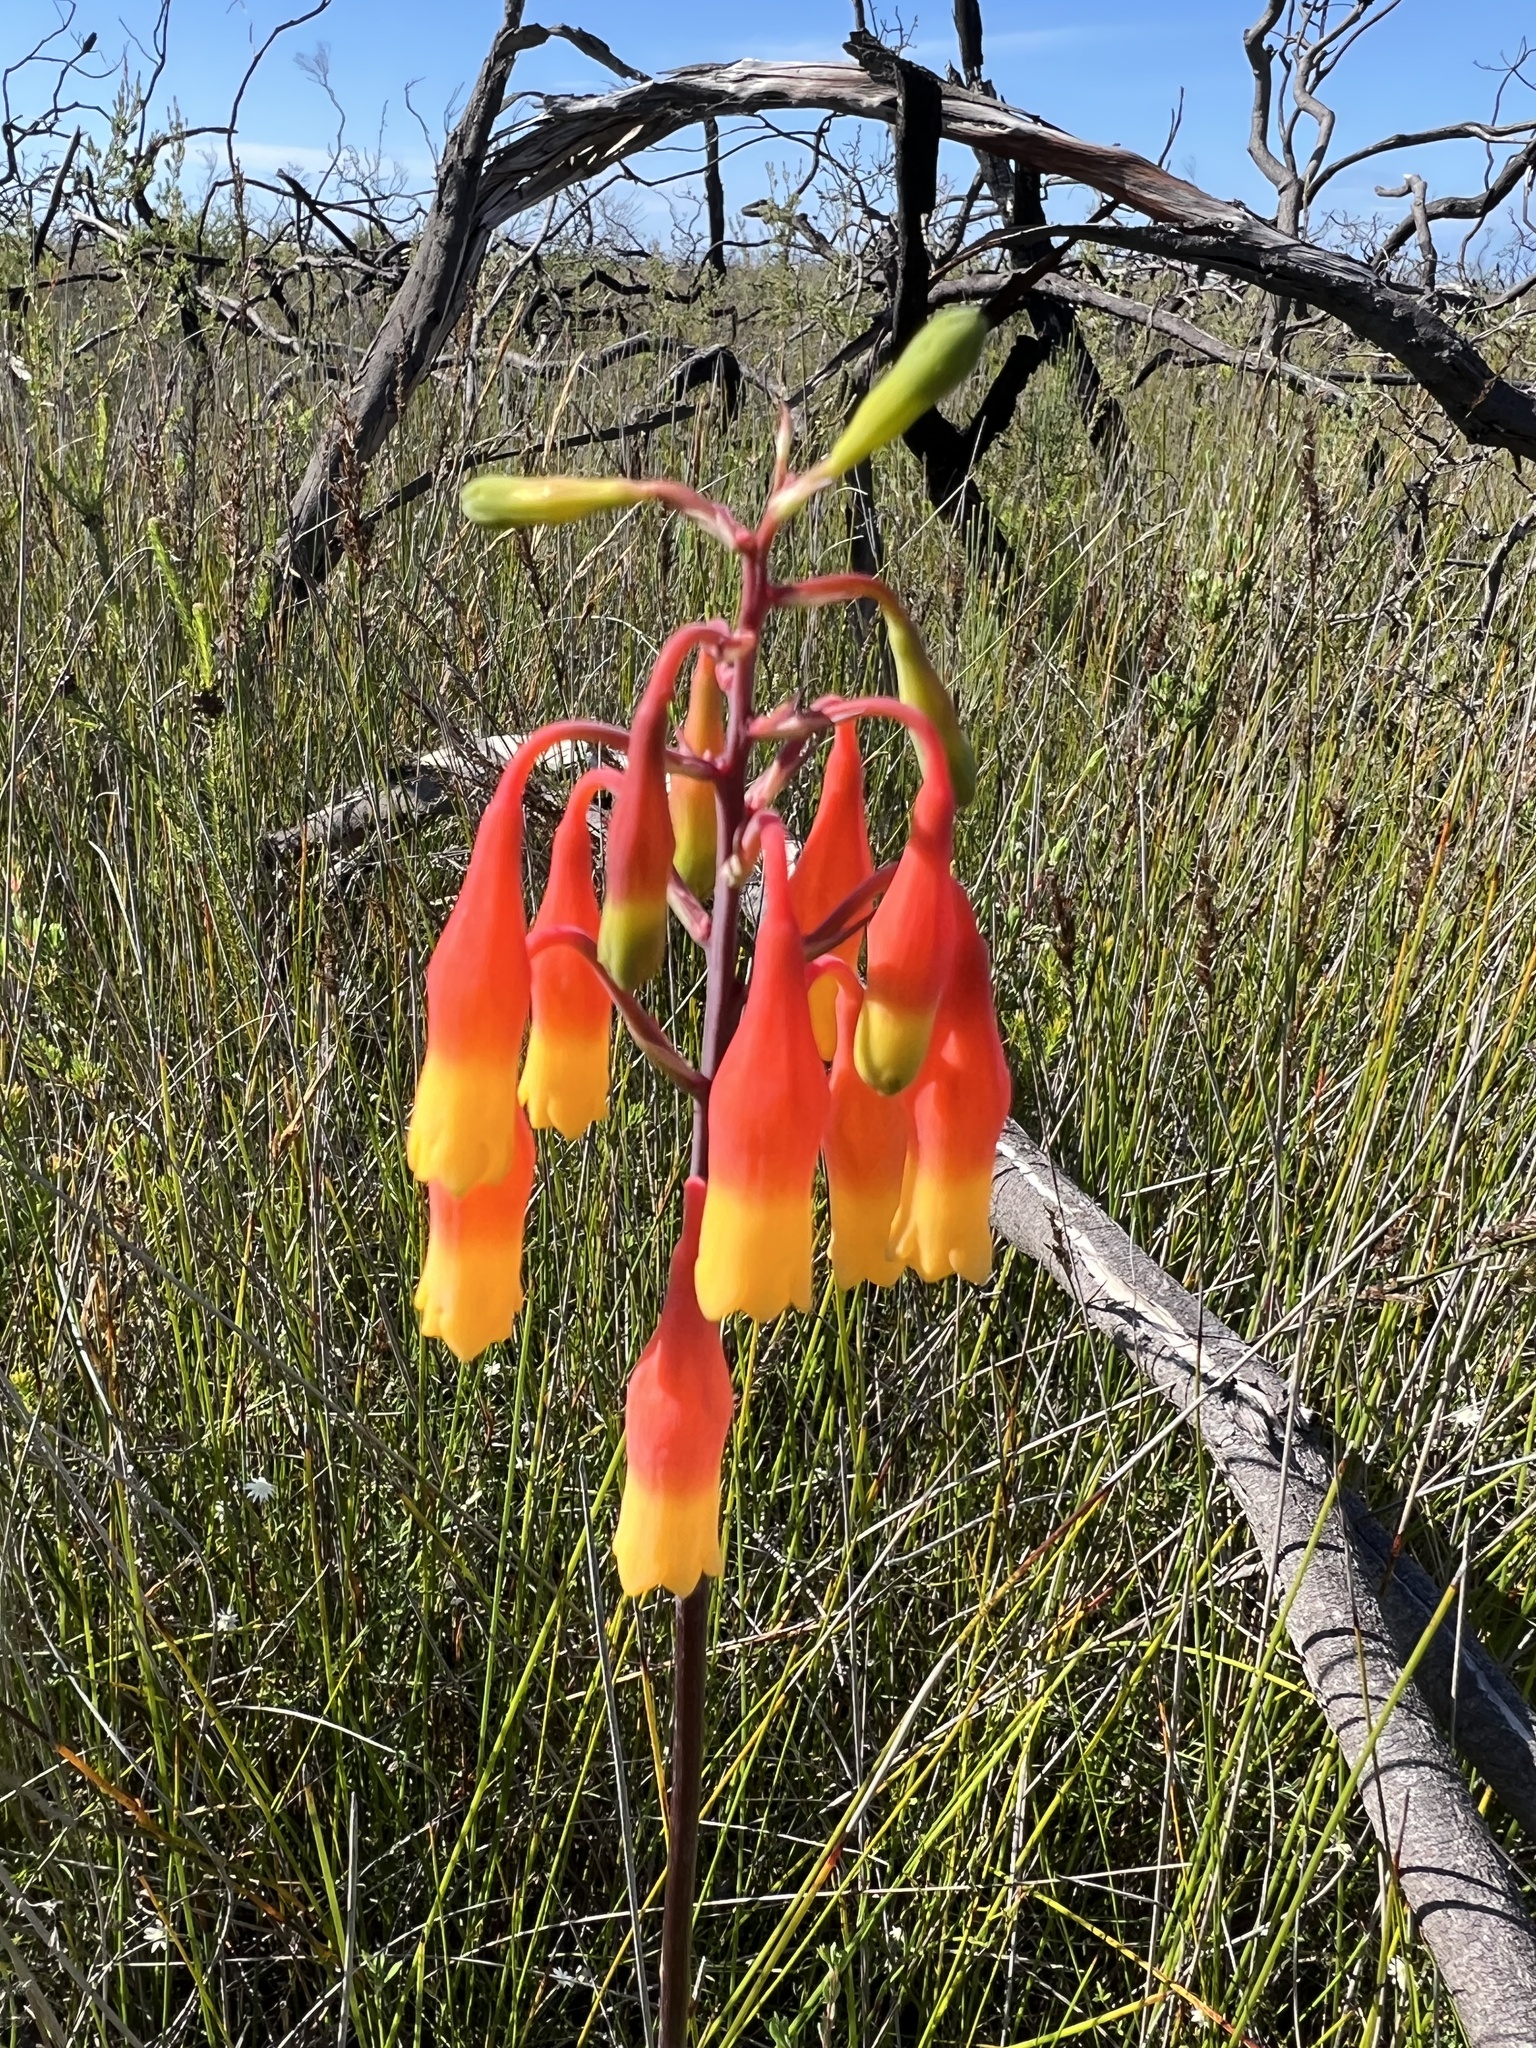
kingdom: Plantae
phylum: Tracheophyta
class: Liliopsida
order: Asparagales
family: Blandfordiaceae
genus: Blandfordia
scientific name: Blandfordia nobilis
